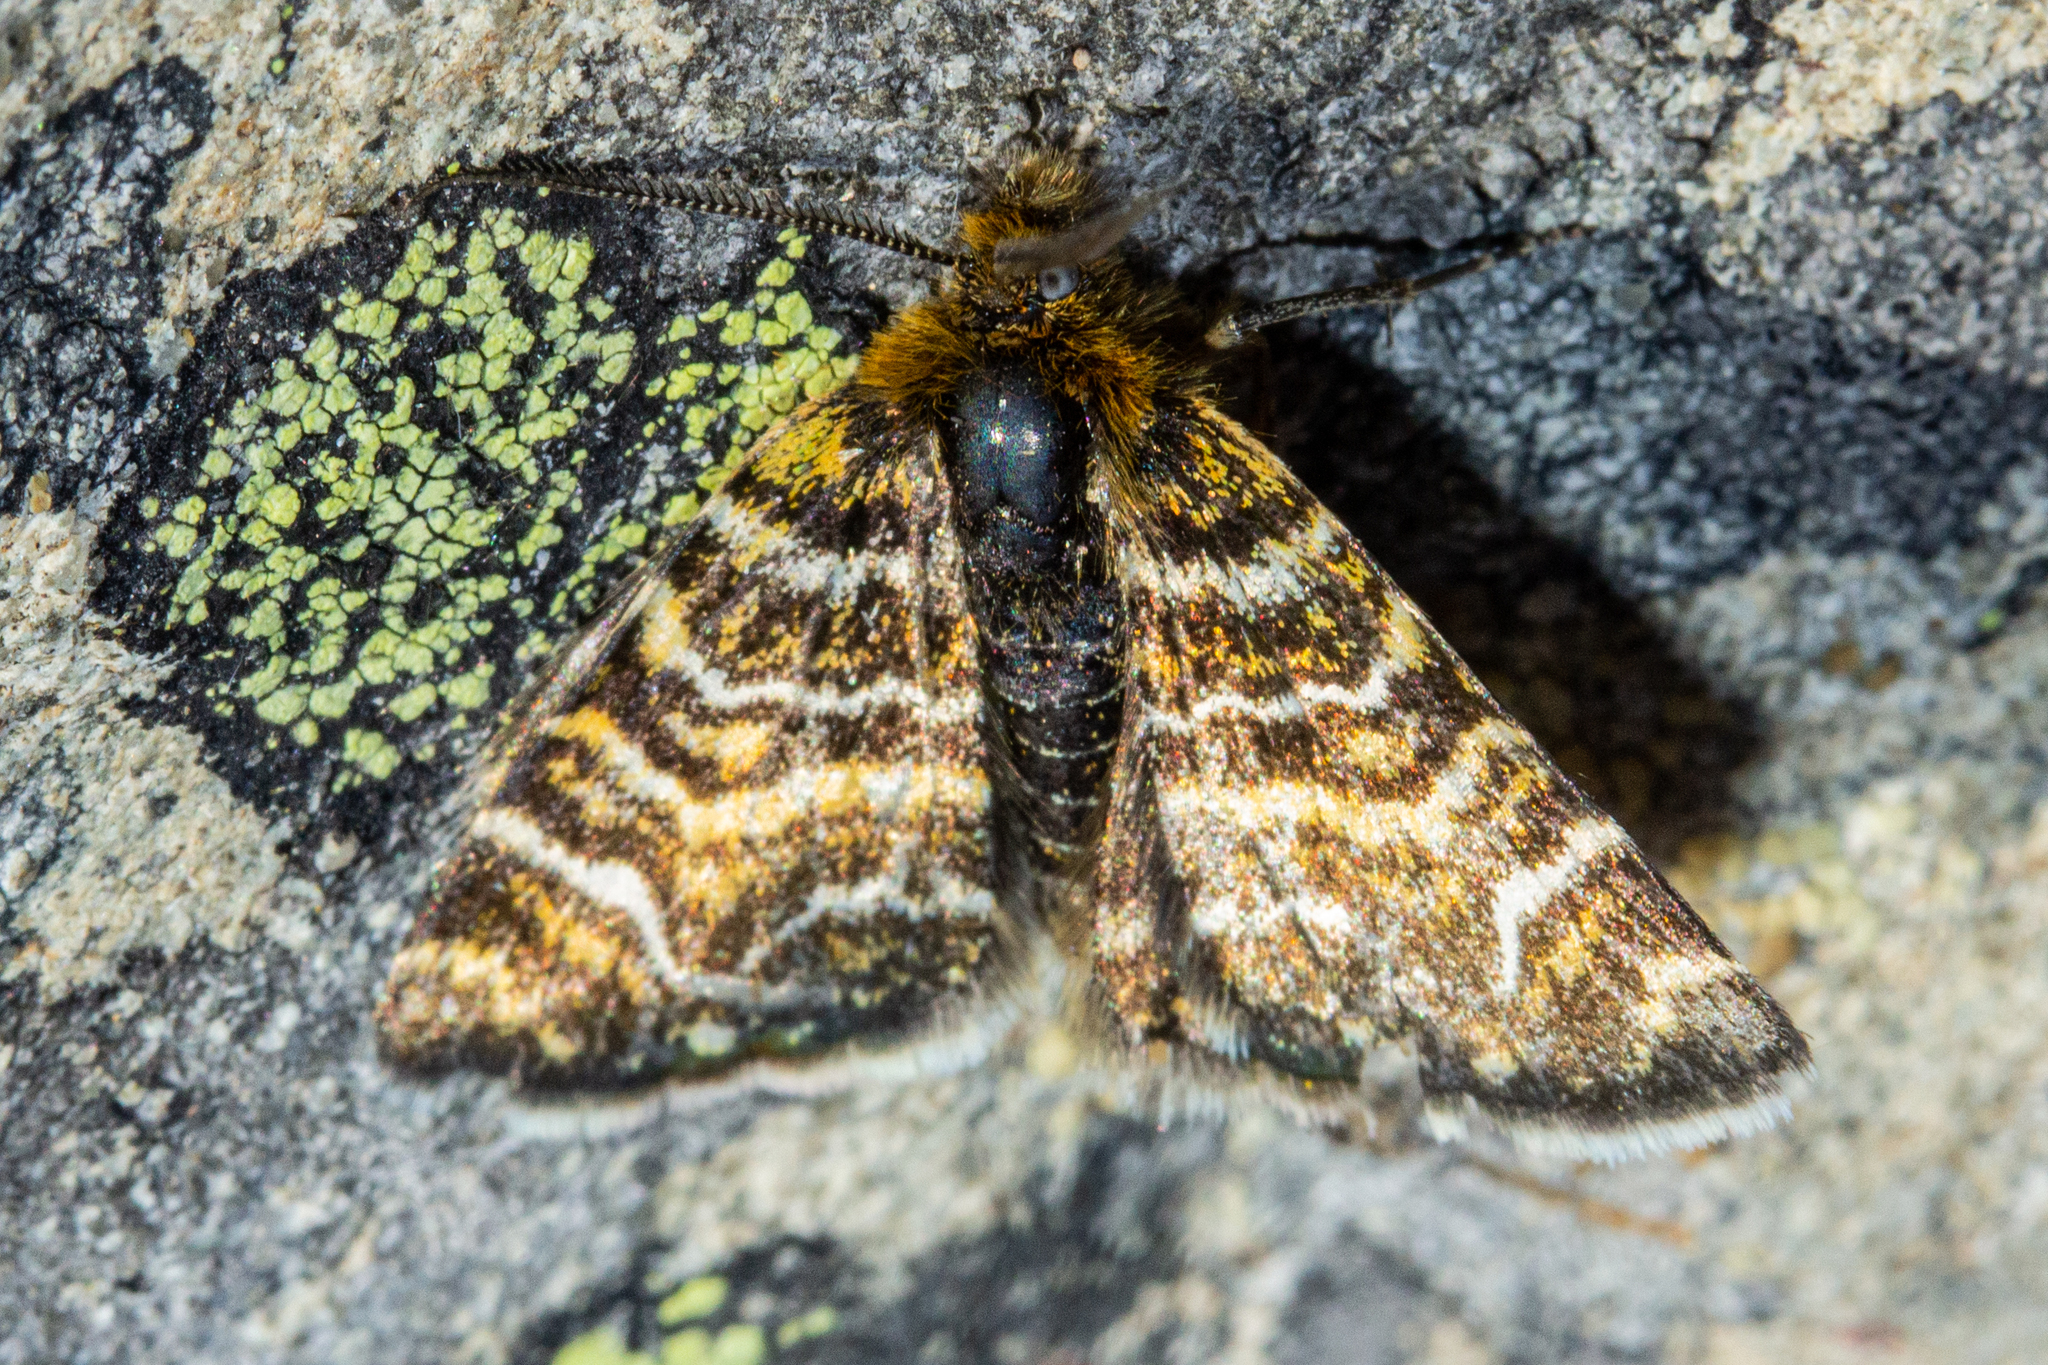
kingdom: Animalia
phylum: Arthropoda
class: Insecta
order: Lepidoptera
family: Geometridae
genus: Notoreas
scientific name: Notoreas chioneres
